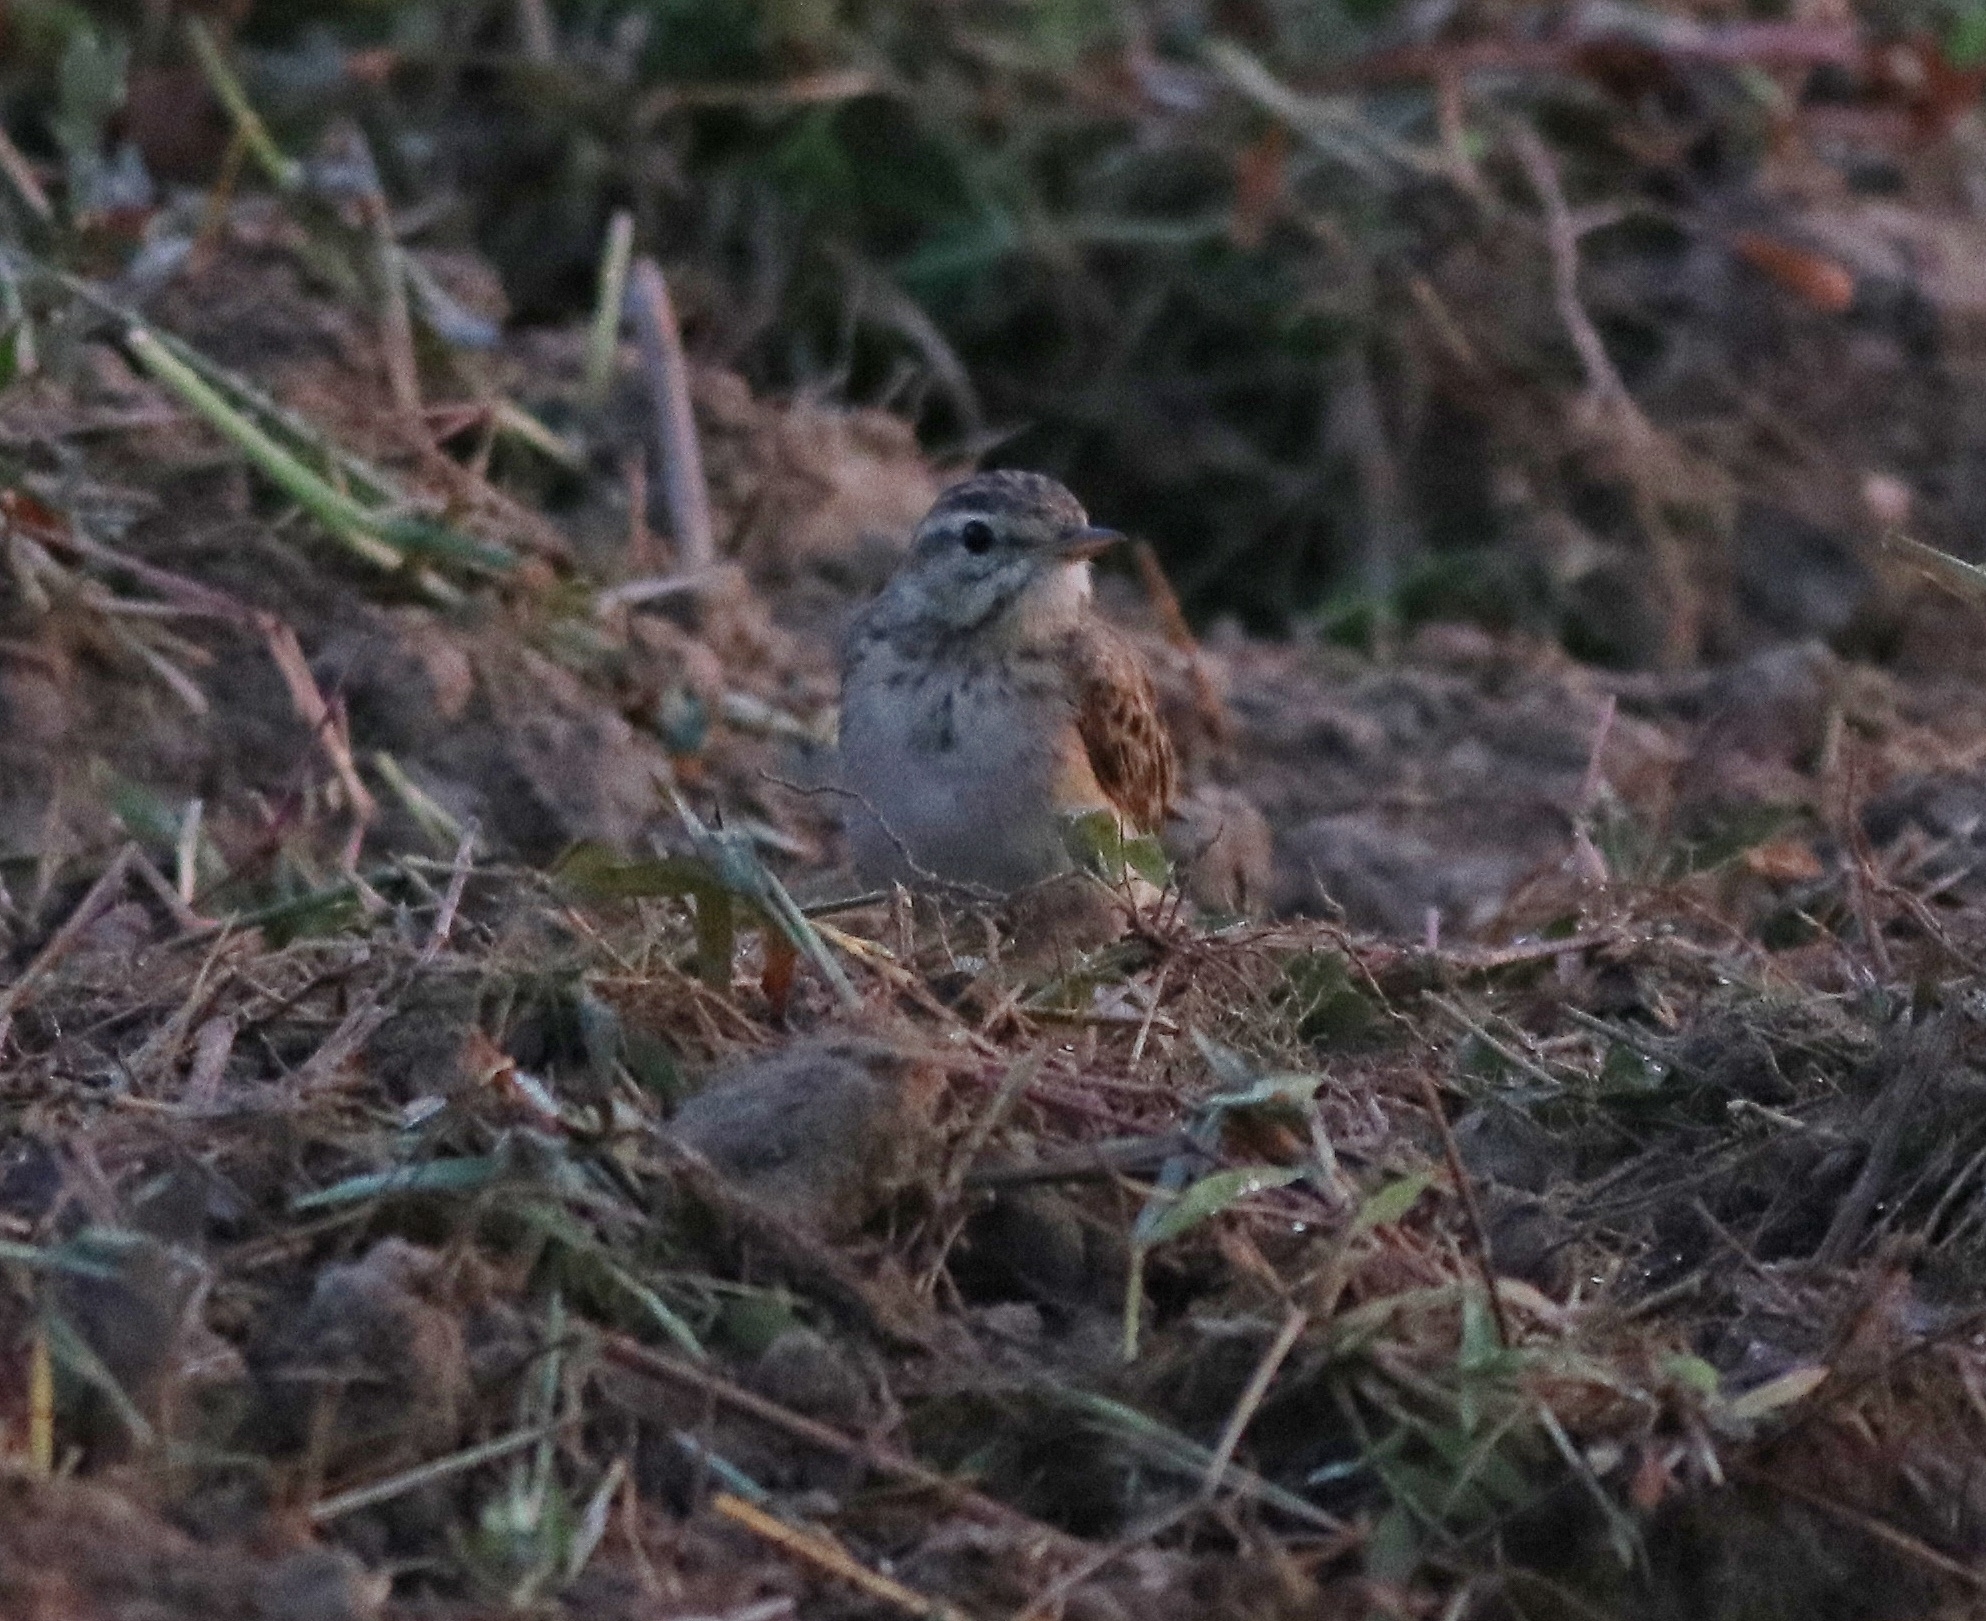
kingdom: Animalia
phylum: Chordata
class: Aves
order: Passeriformes
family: Motacillidae
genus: Anthus
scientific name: Anthus rufulus
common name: Paddyfield pipit
